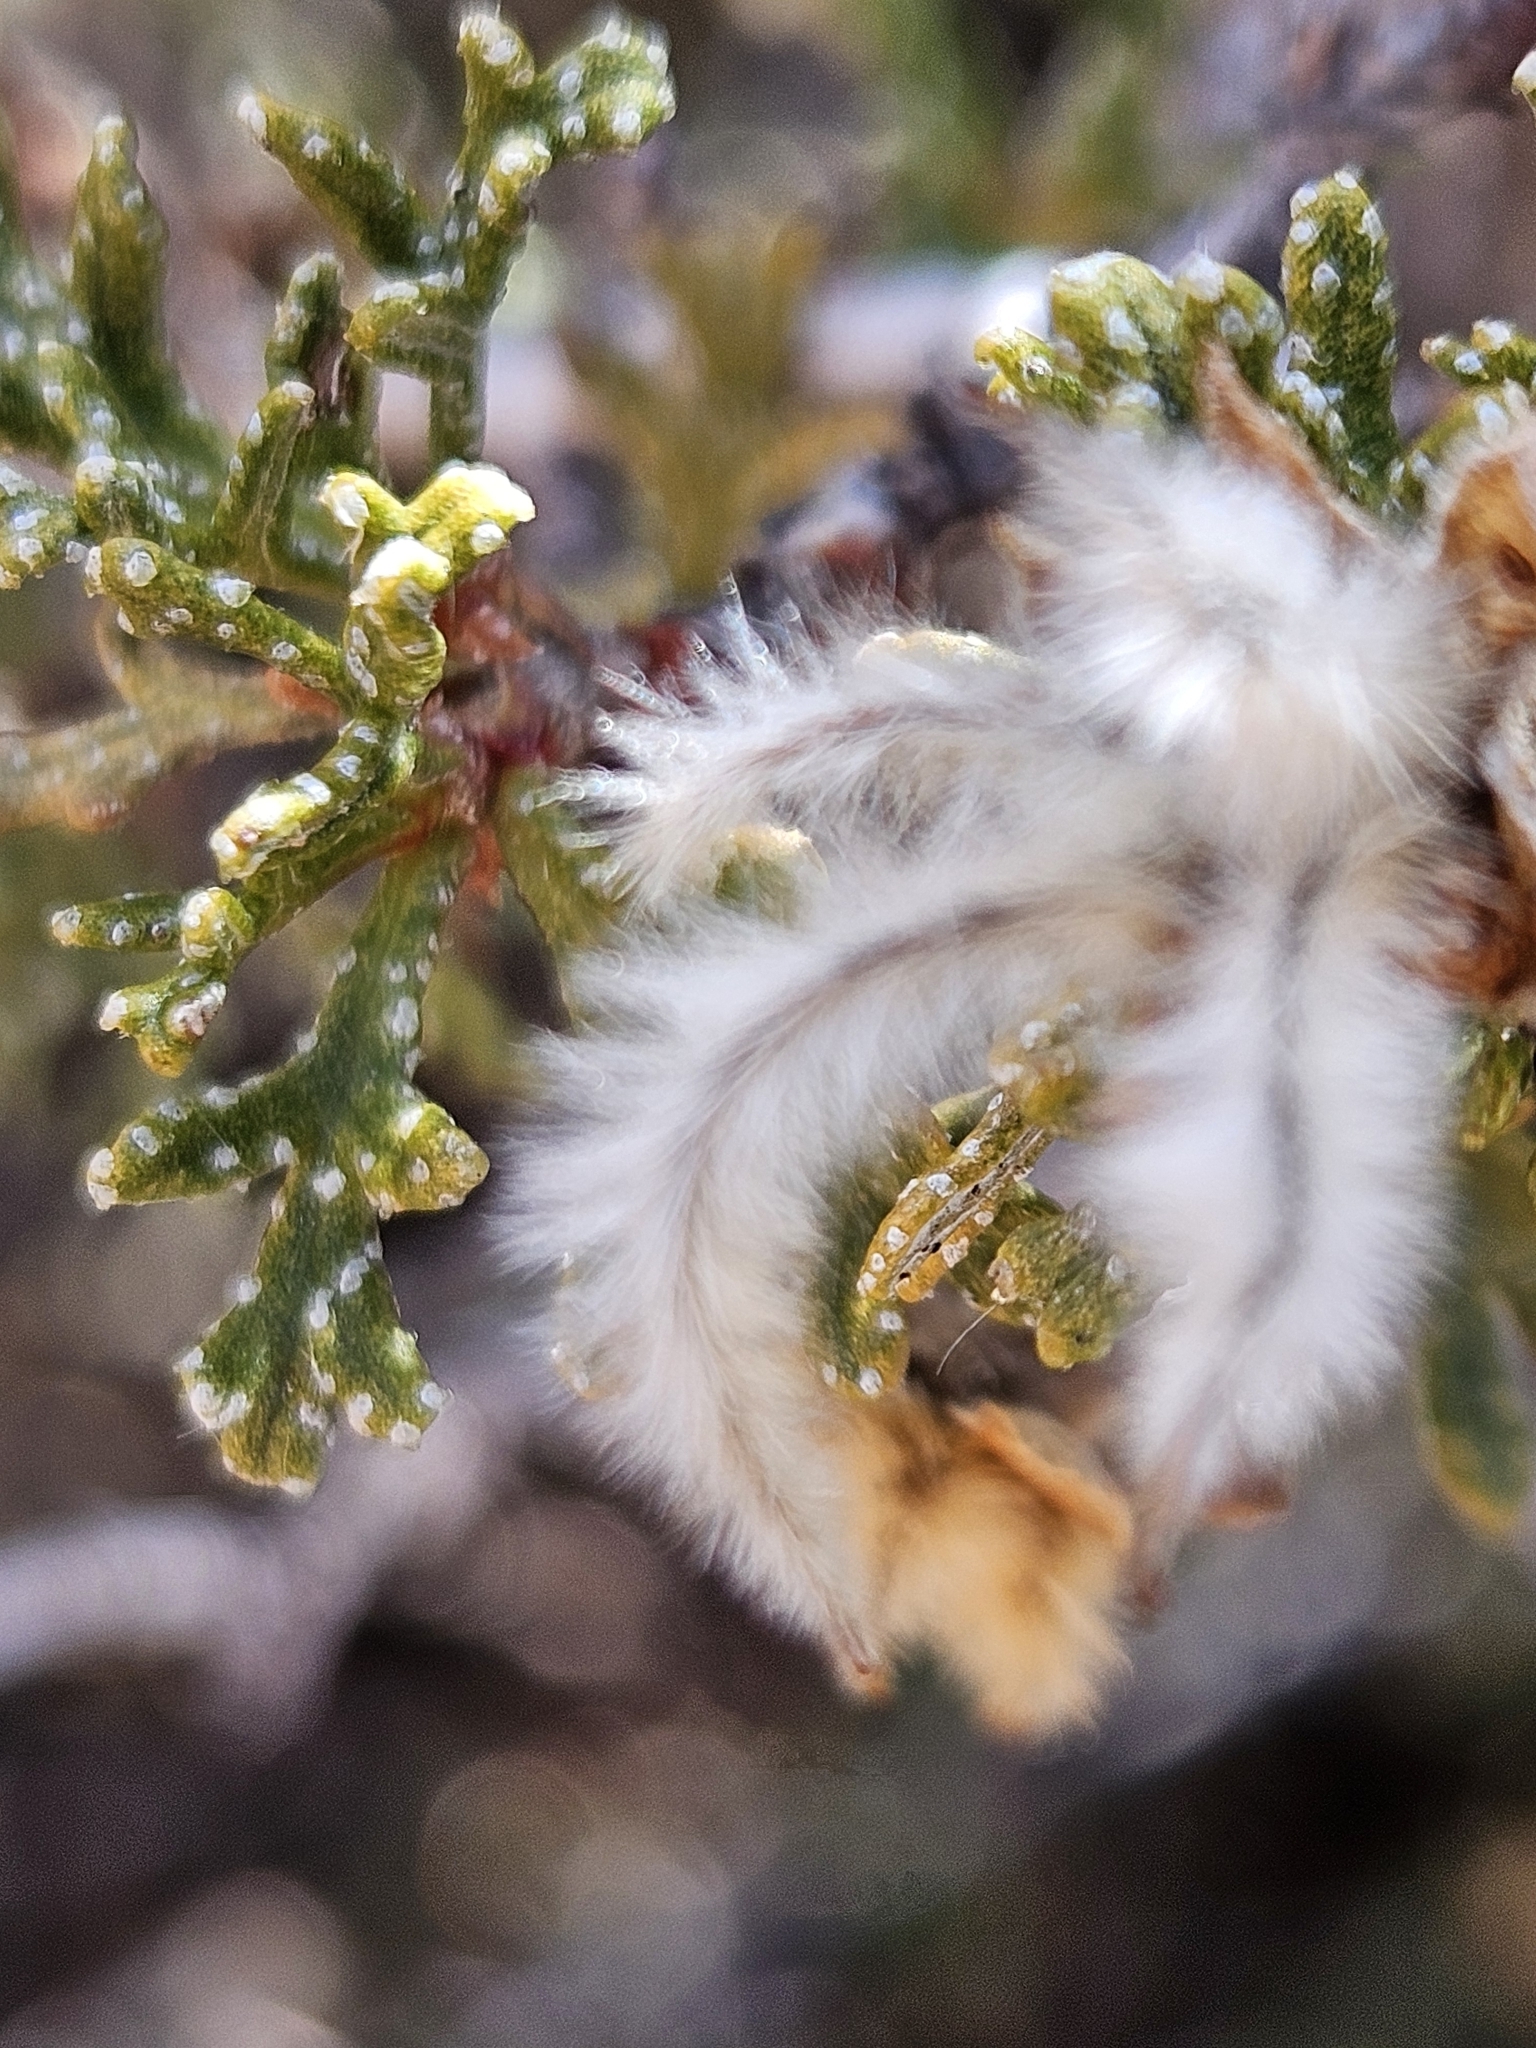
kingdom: Plantae
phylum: Tracheophyta
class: Magnoliopsida
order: Rosales
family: Rosaceae
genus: Purshia
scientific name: Purshia stansburiana
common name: Stansbury's cliffrose
